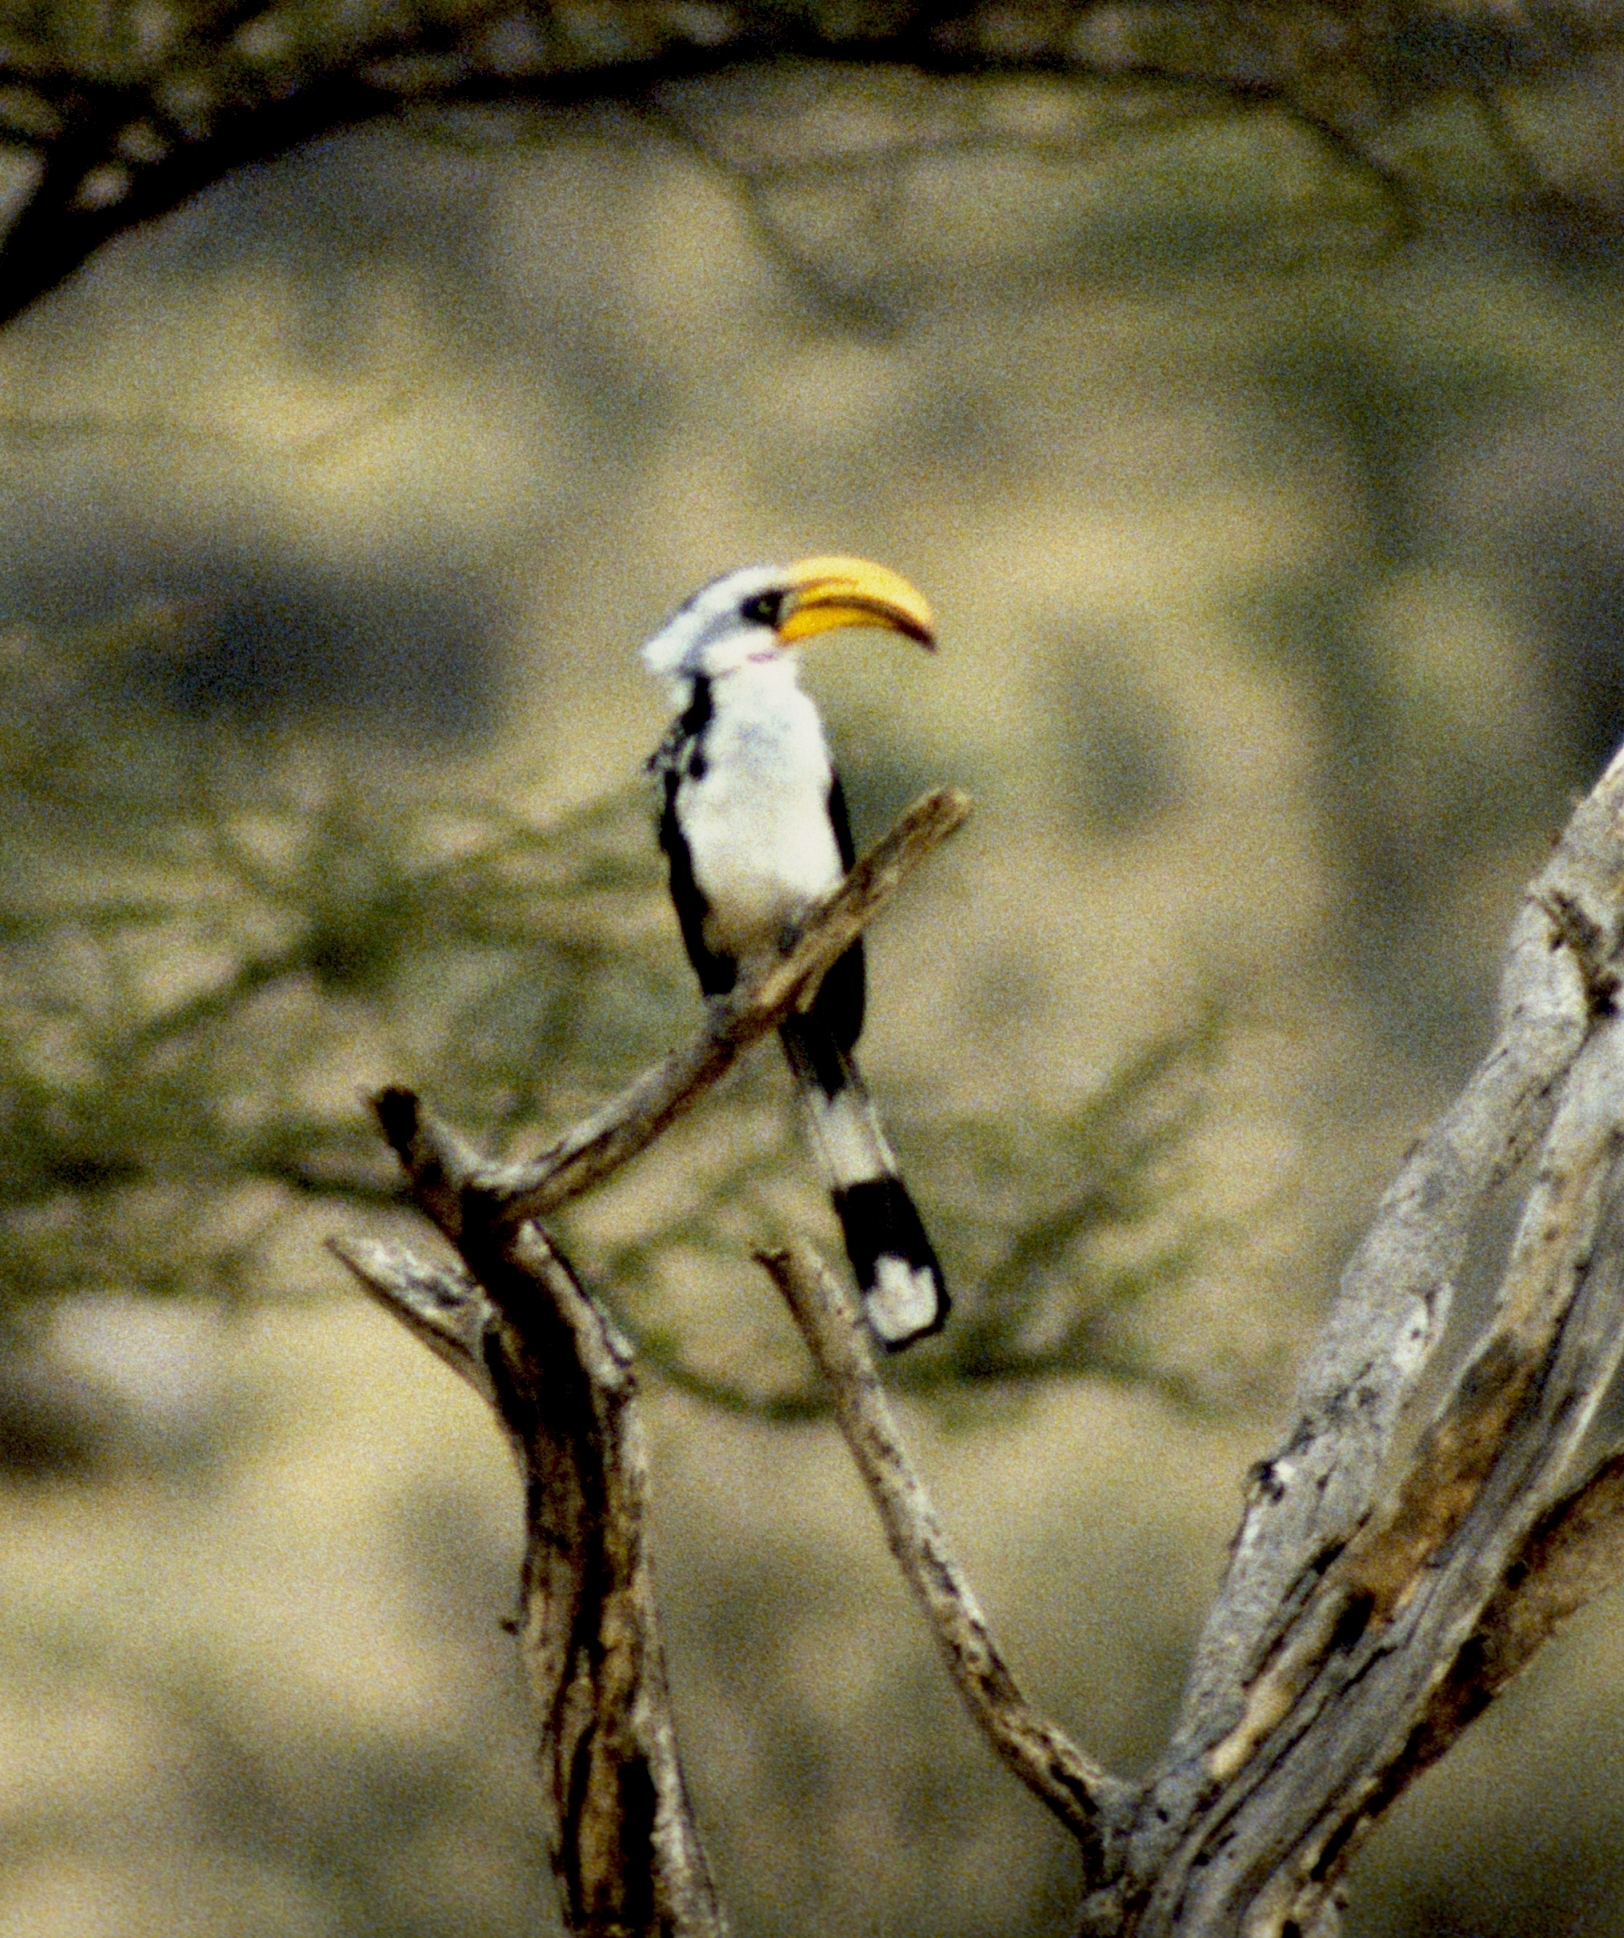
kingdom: Animalia
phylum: Chordata
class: Aves
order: Bucerotiformes
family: Bucerotidae
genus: Tockus
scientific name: Tockus flavirostris
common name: Eastern yellow-billed hornbill
